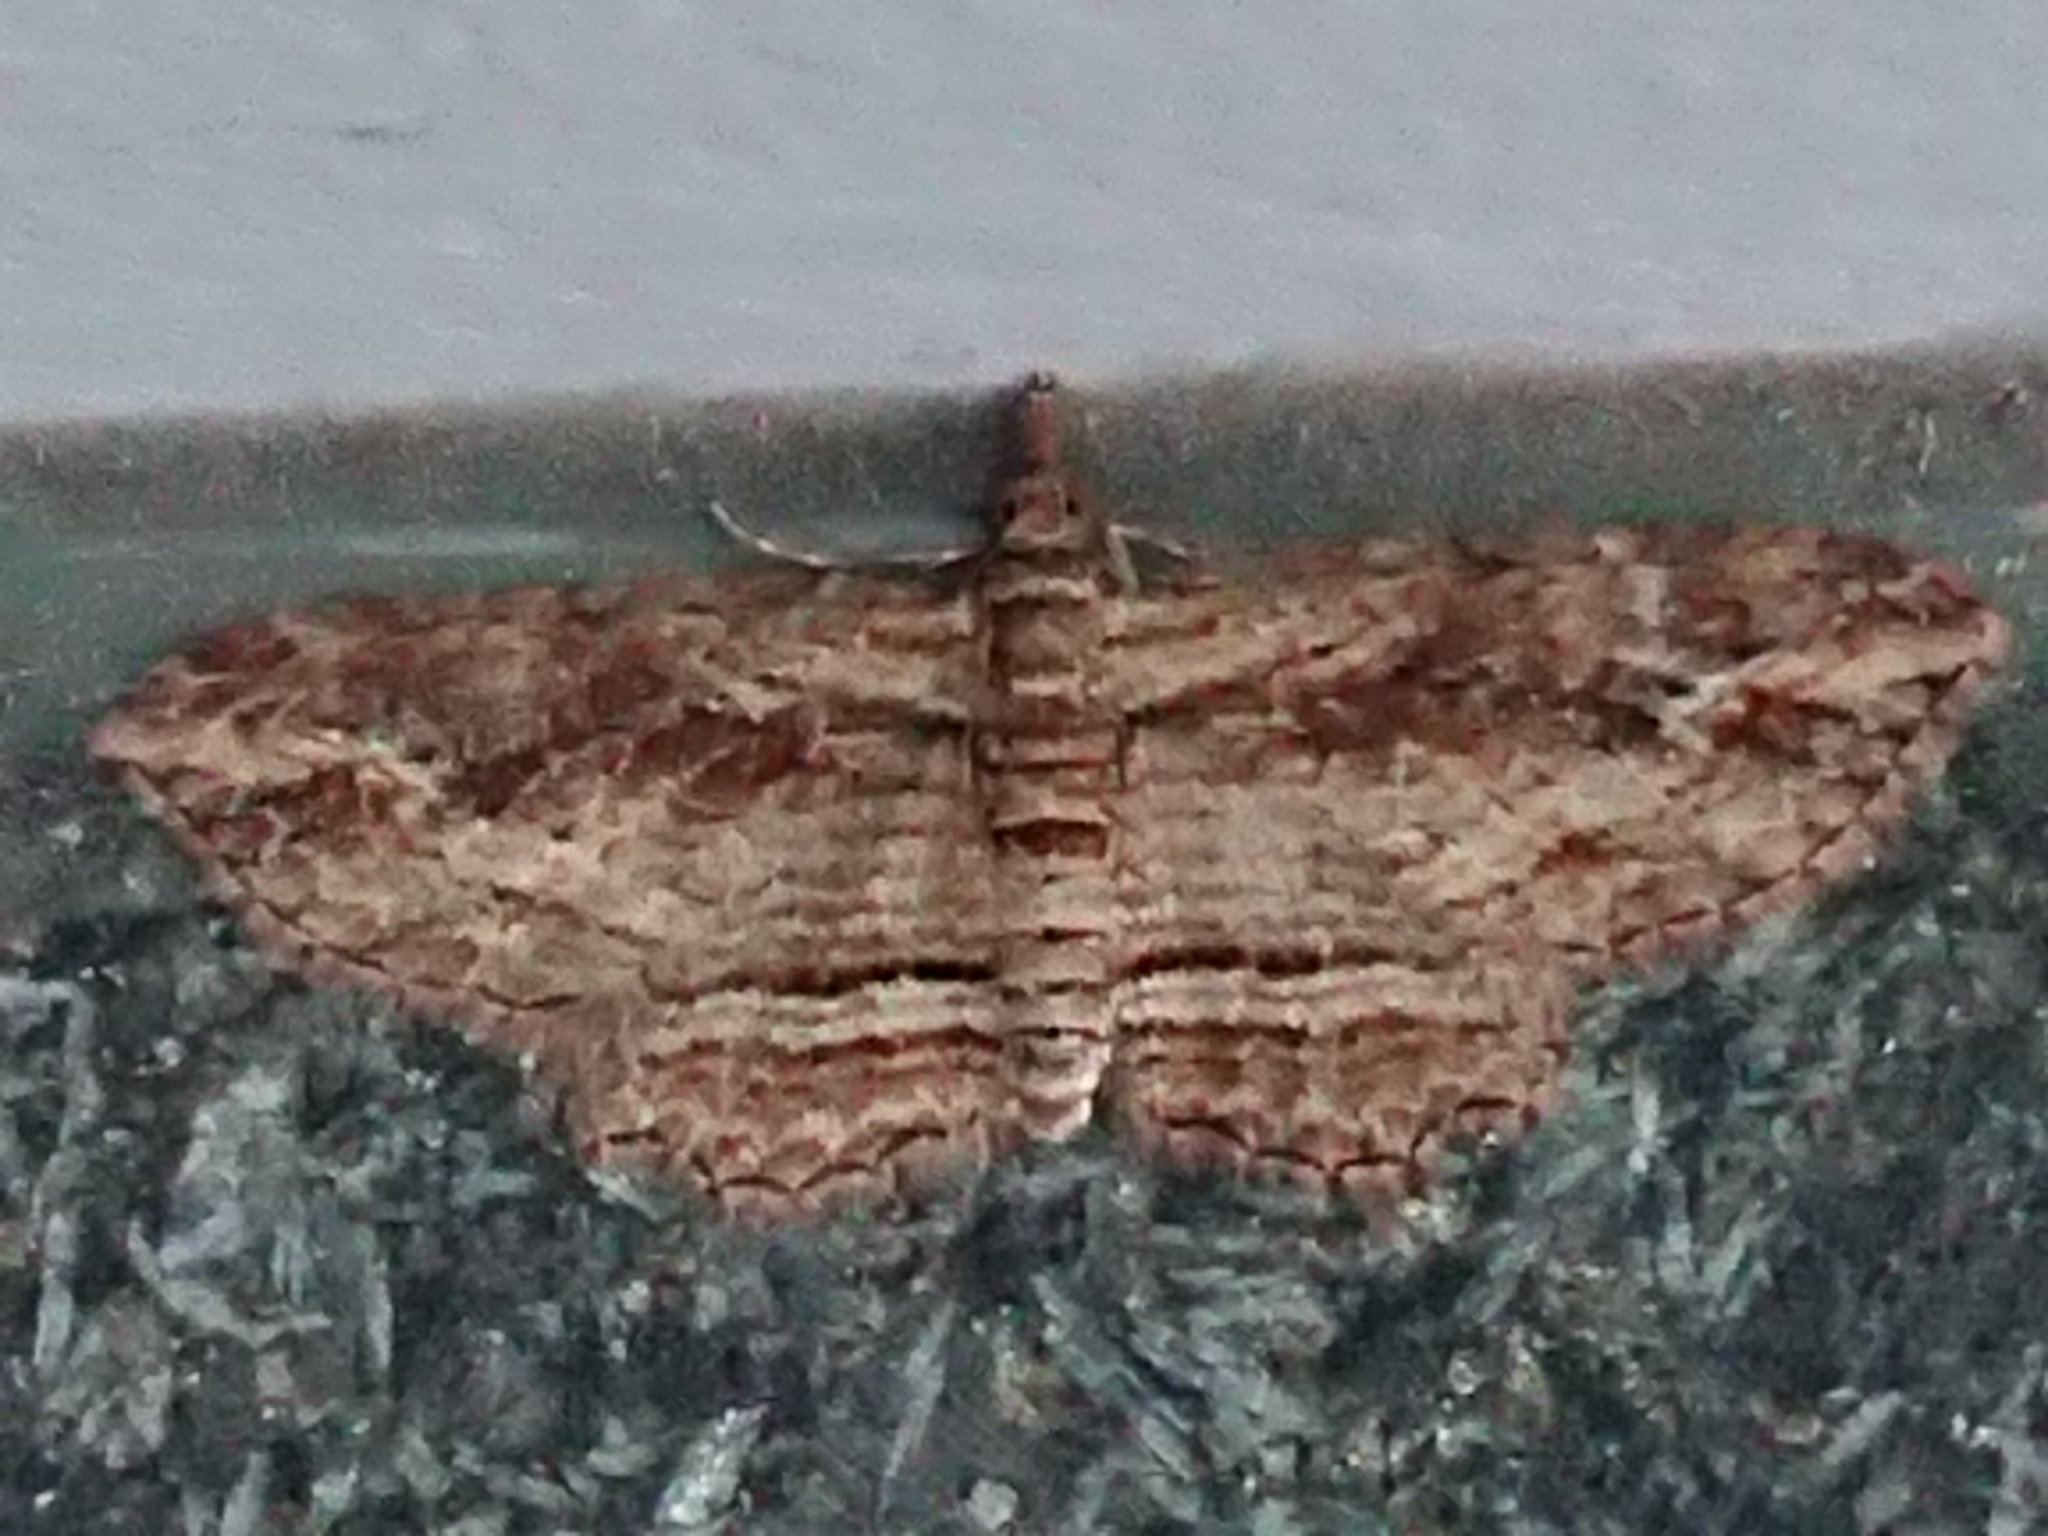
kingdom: Animalia
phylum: Arthropoda
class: Insecta
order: Lepidoptera
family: Geometridae
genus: Chloroclystis
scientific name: Chloroclystis filata
